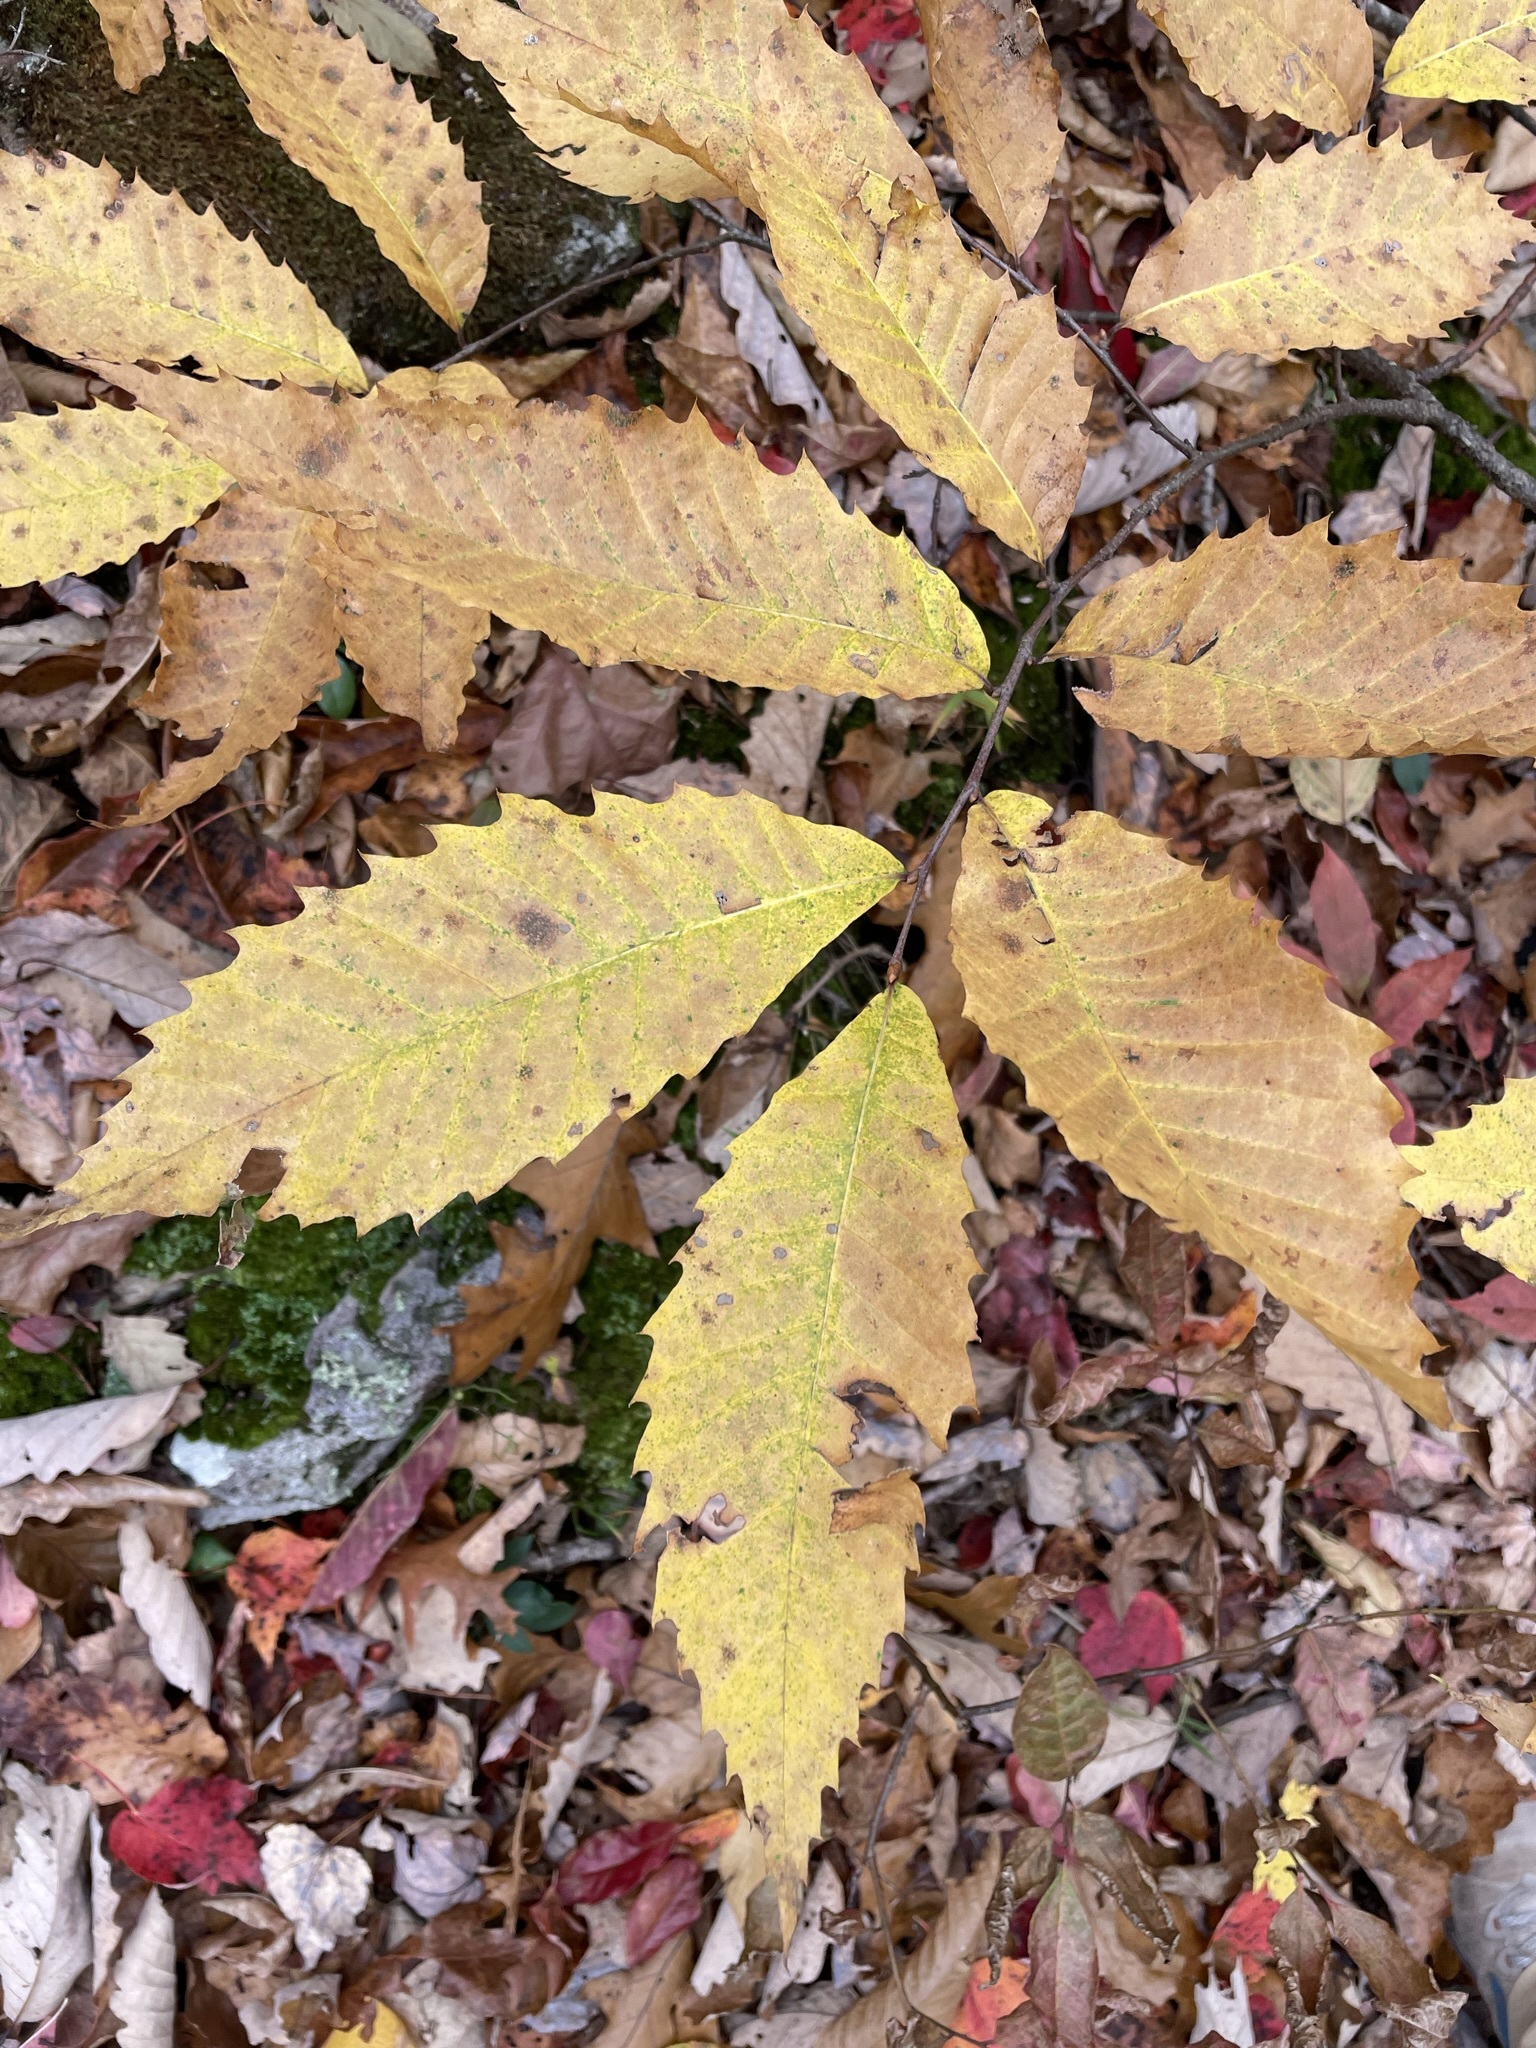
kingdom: Plantae
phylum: Tracheophyta
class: Magnoliopsida
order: Fagales
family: Fagaceae
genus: Castanea
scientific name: Castanea dentata
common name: American chestnut
